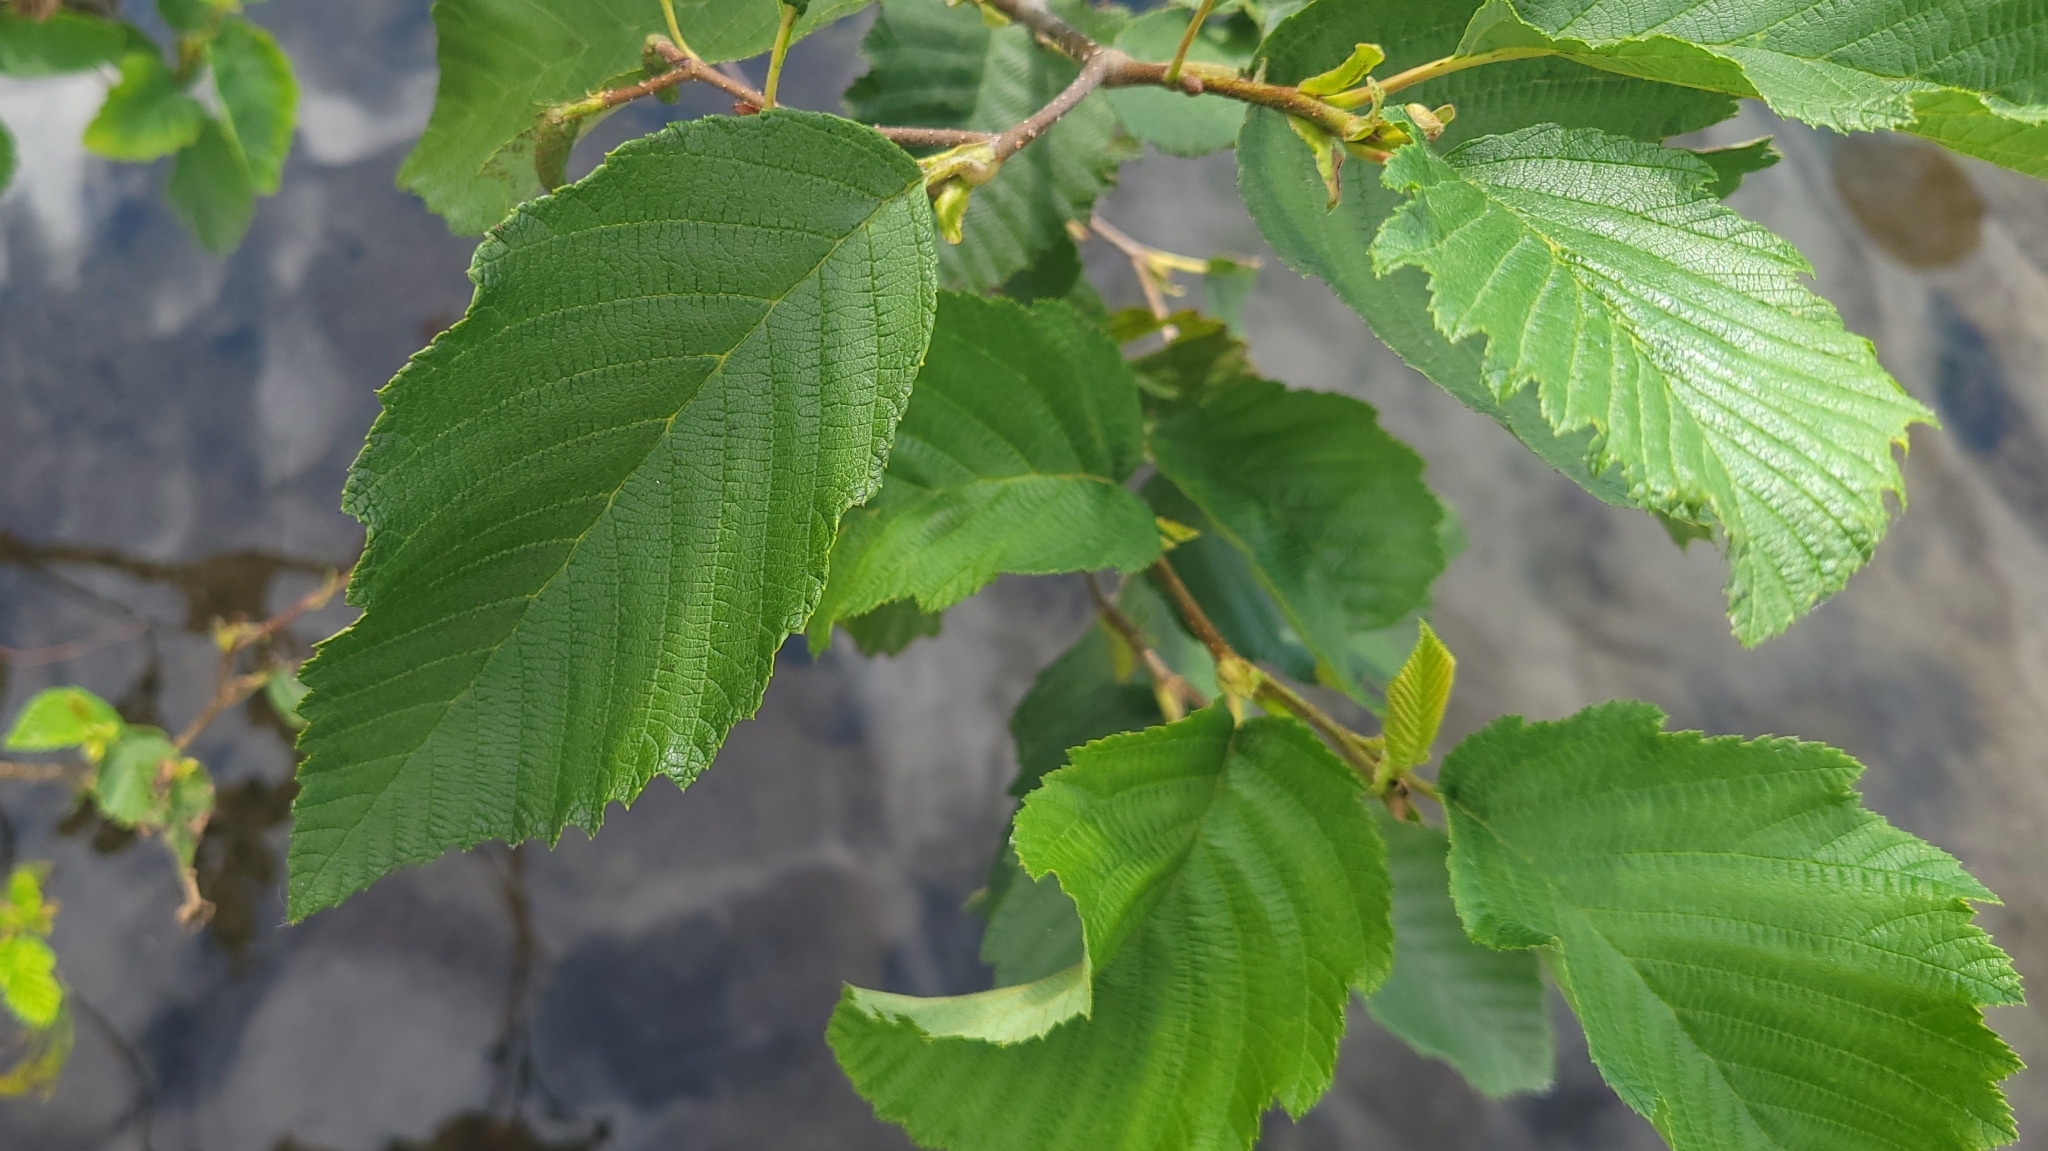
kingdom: Plantae
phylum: Tracheophyta
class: Magnoliopsida
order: Fagales
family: Betulaceae
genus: Alnus
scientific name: Alnus incana
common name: Grey alder
